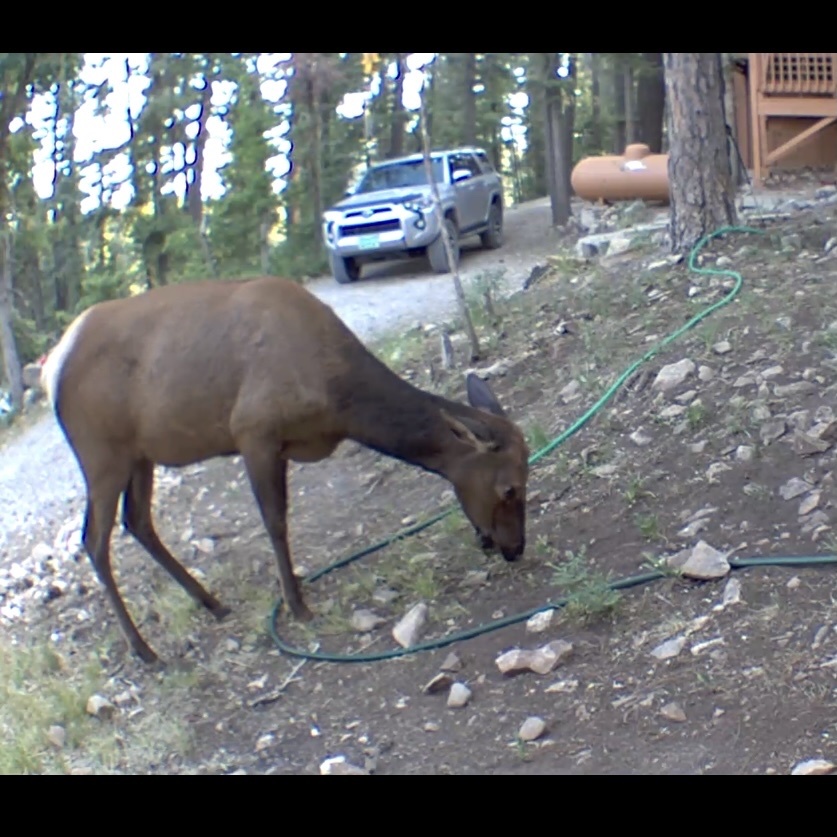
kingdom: Animalia
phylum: Chordata
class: Mammalia
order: Artiodactyla
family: Cervidae
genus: Cervus
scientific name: Cervus elaphus
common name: Red deer
